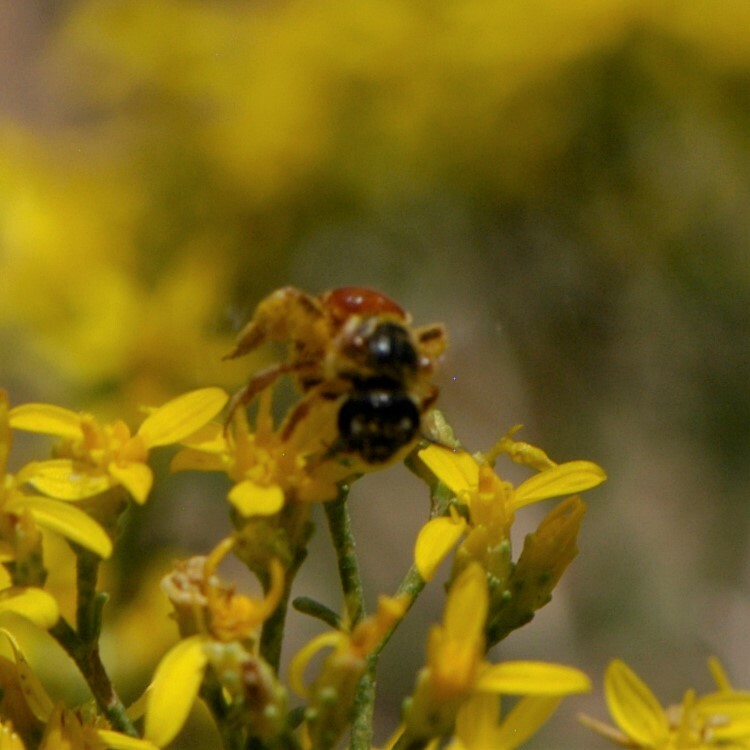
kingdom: Animalia
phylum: Arthropoda
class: Insecta
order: Hymenoptera
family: Halictidae
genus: Dieunomia
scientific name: Dieunomia nevadensis
